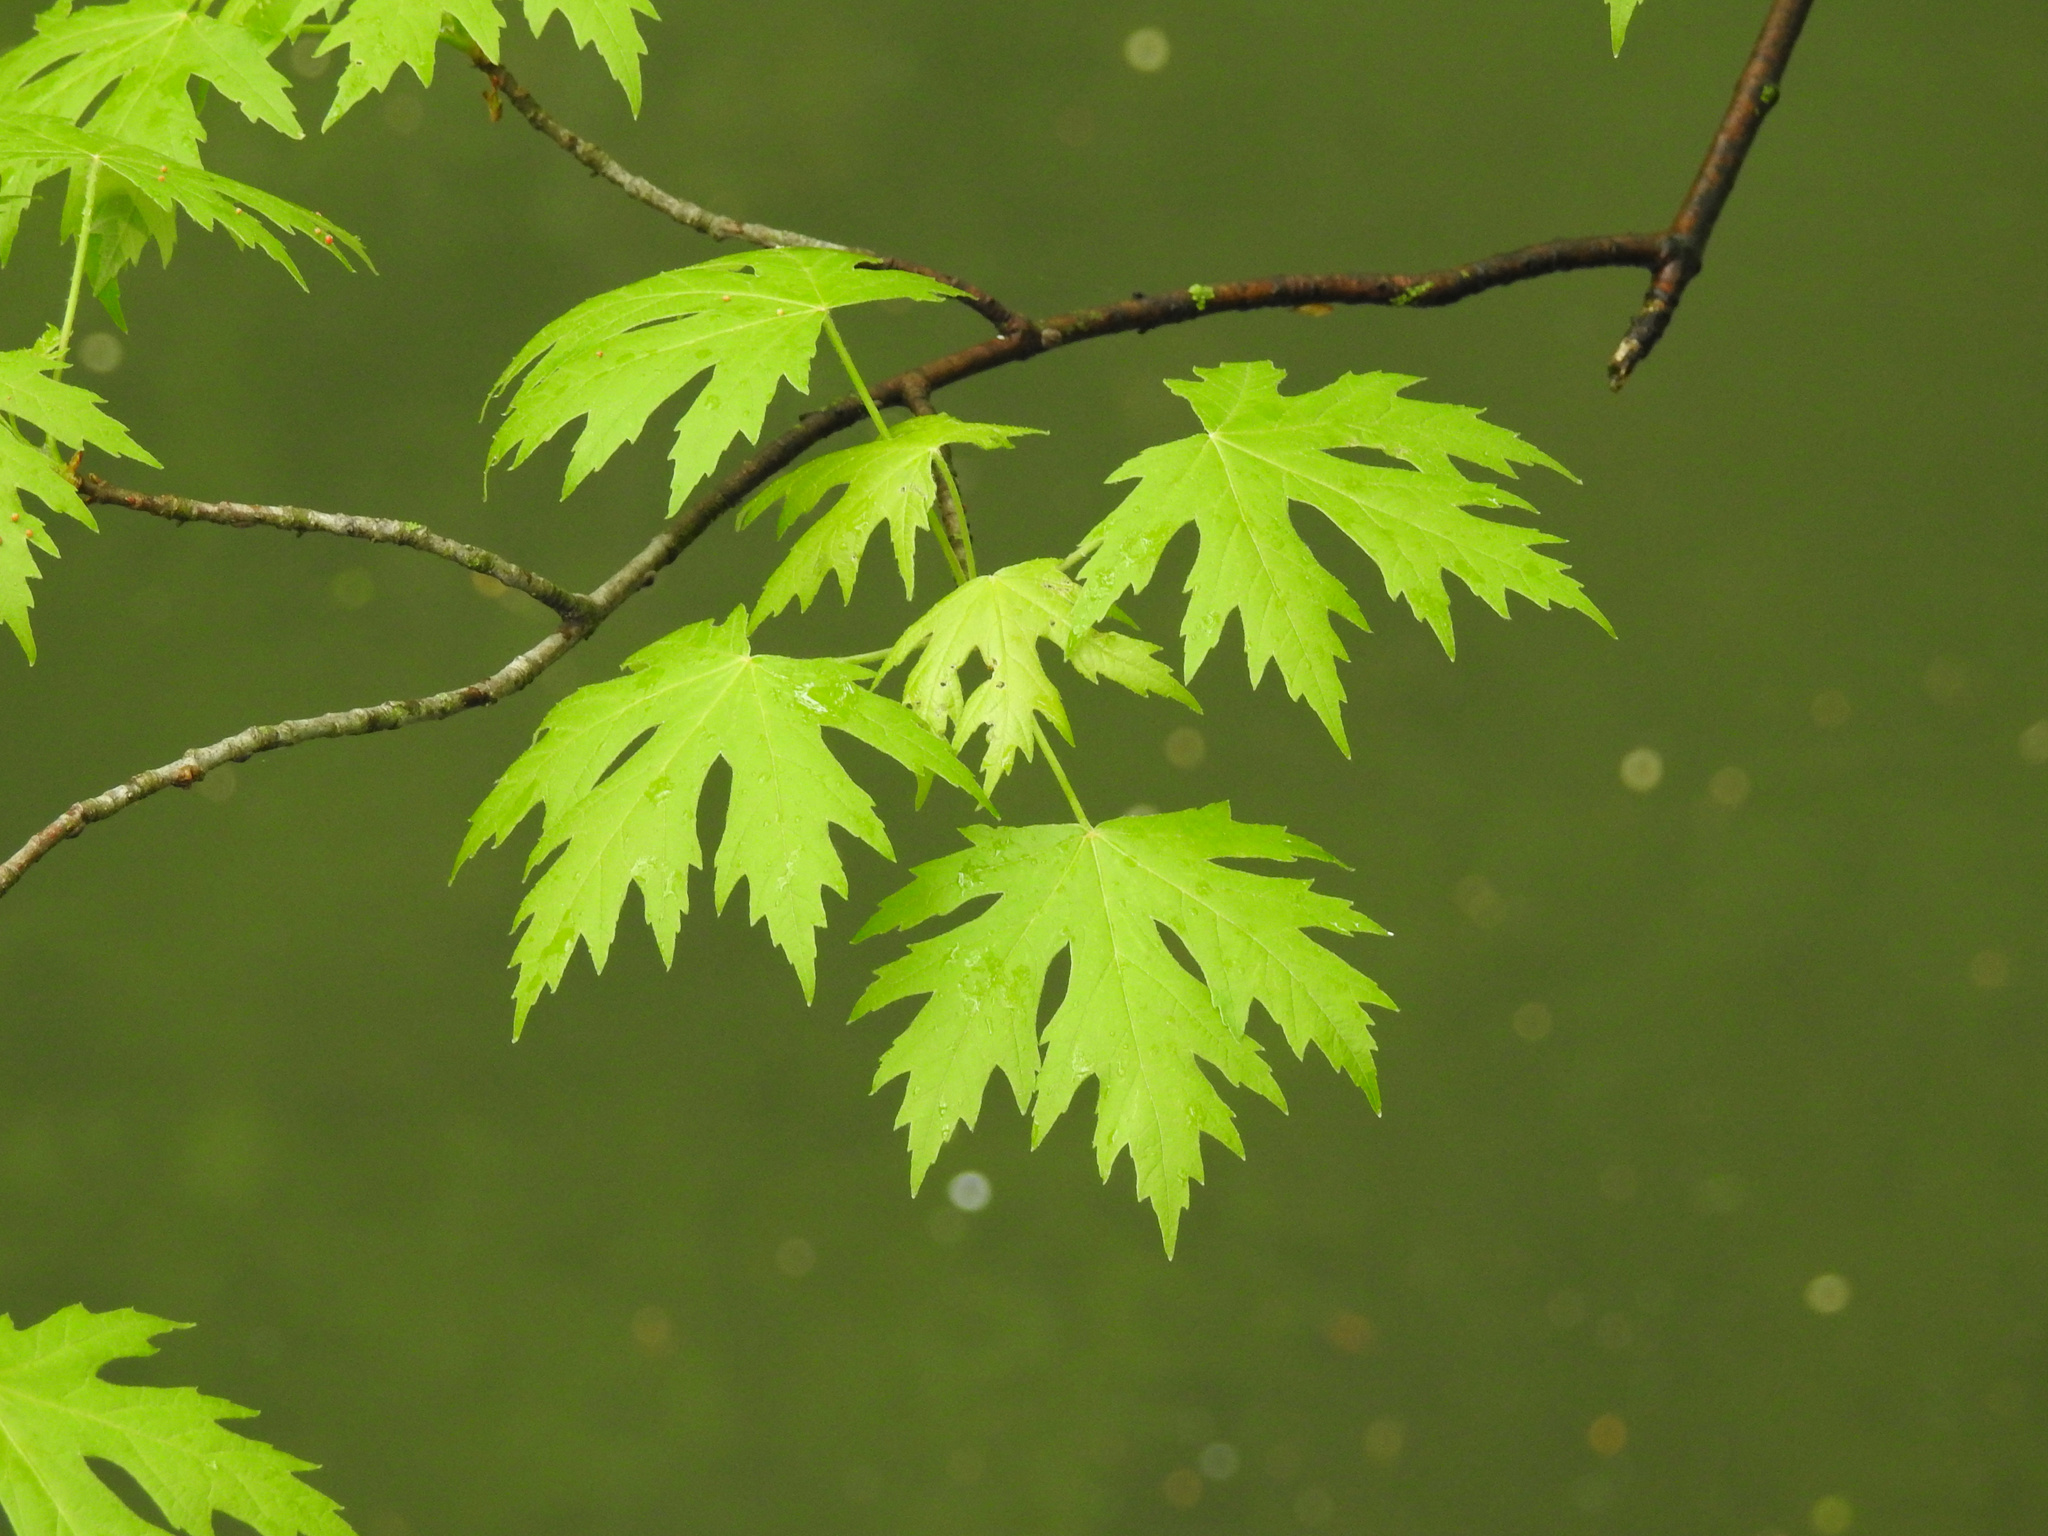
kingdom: Plantae
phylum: Tracheophyta
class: Magnoliopsida
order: Sapindales
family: Sapindaceae
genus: Acer
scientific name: Acer saccharinum
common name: Silver maple
